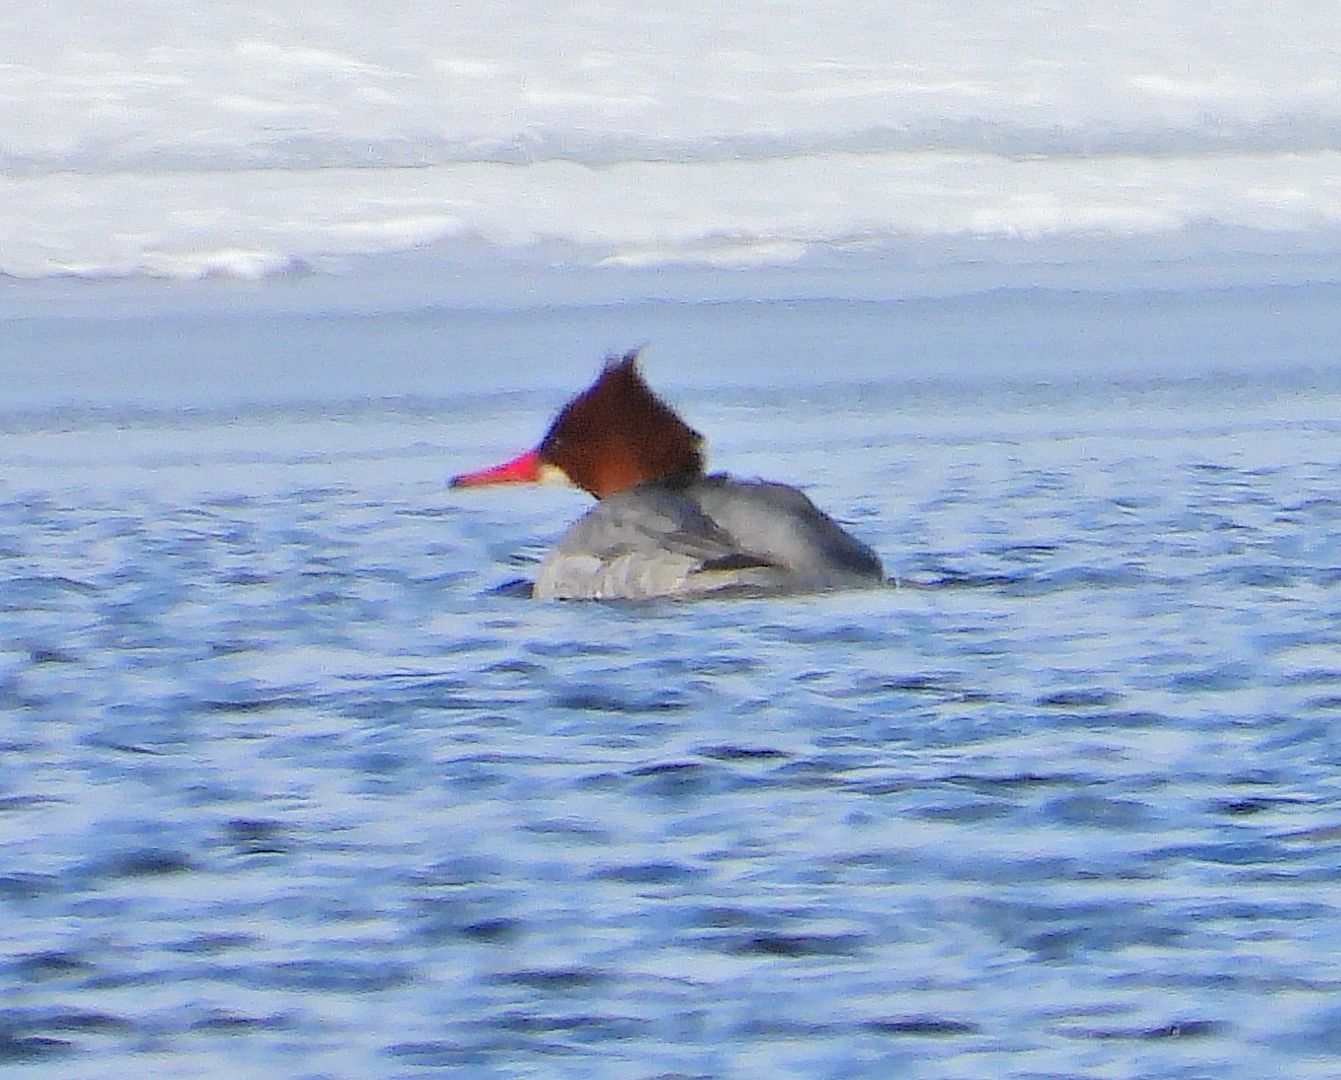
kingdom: Animalia
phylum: Chordata
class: Aves
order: Anseriformes
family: Anatidae
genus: Mergus
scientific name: Mergus merganser
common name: Common merganser
